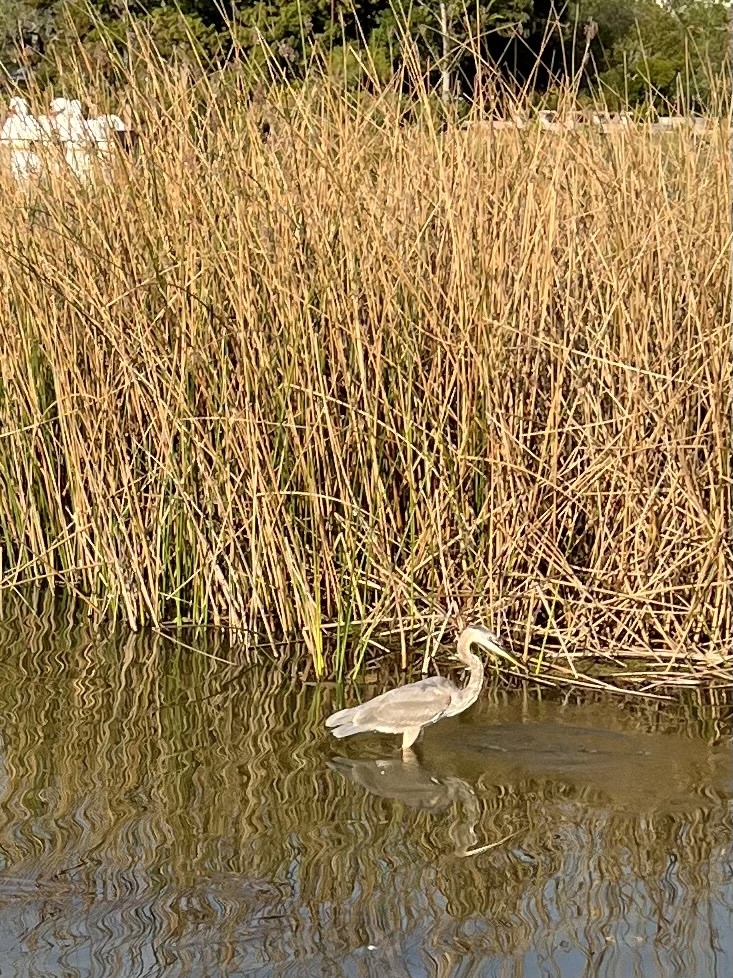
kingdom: Animalia
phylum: Chordata
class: Aves
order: Pelecaniformes
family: Ardeidae
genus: Ardea
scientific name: Ardea herodias
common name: Great blue heron
